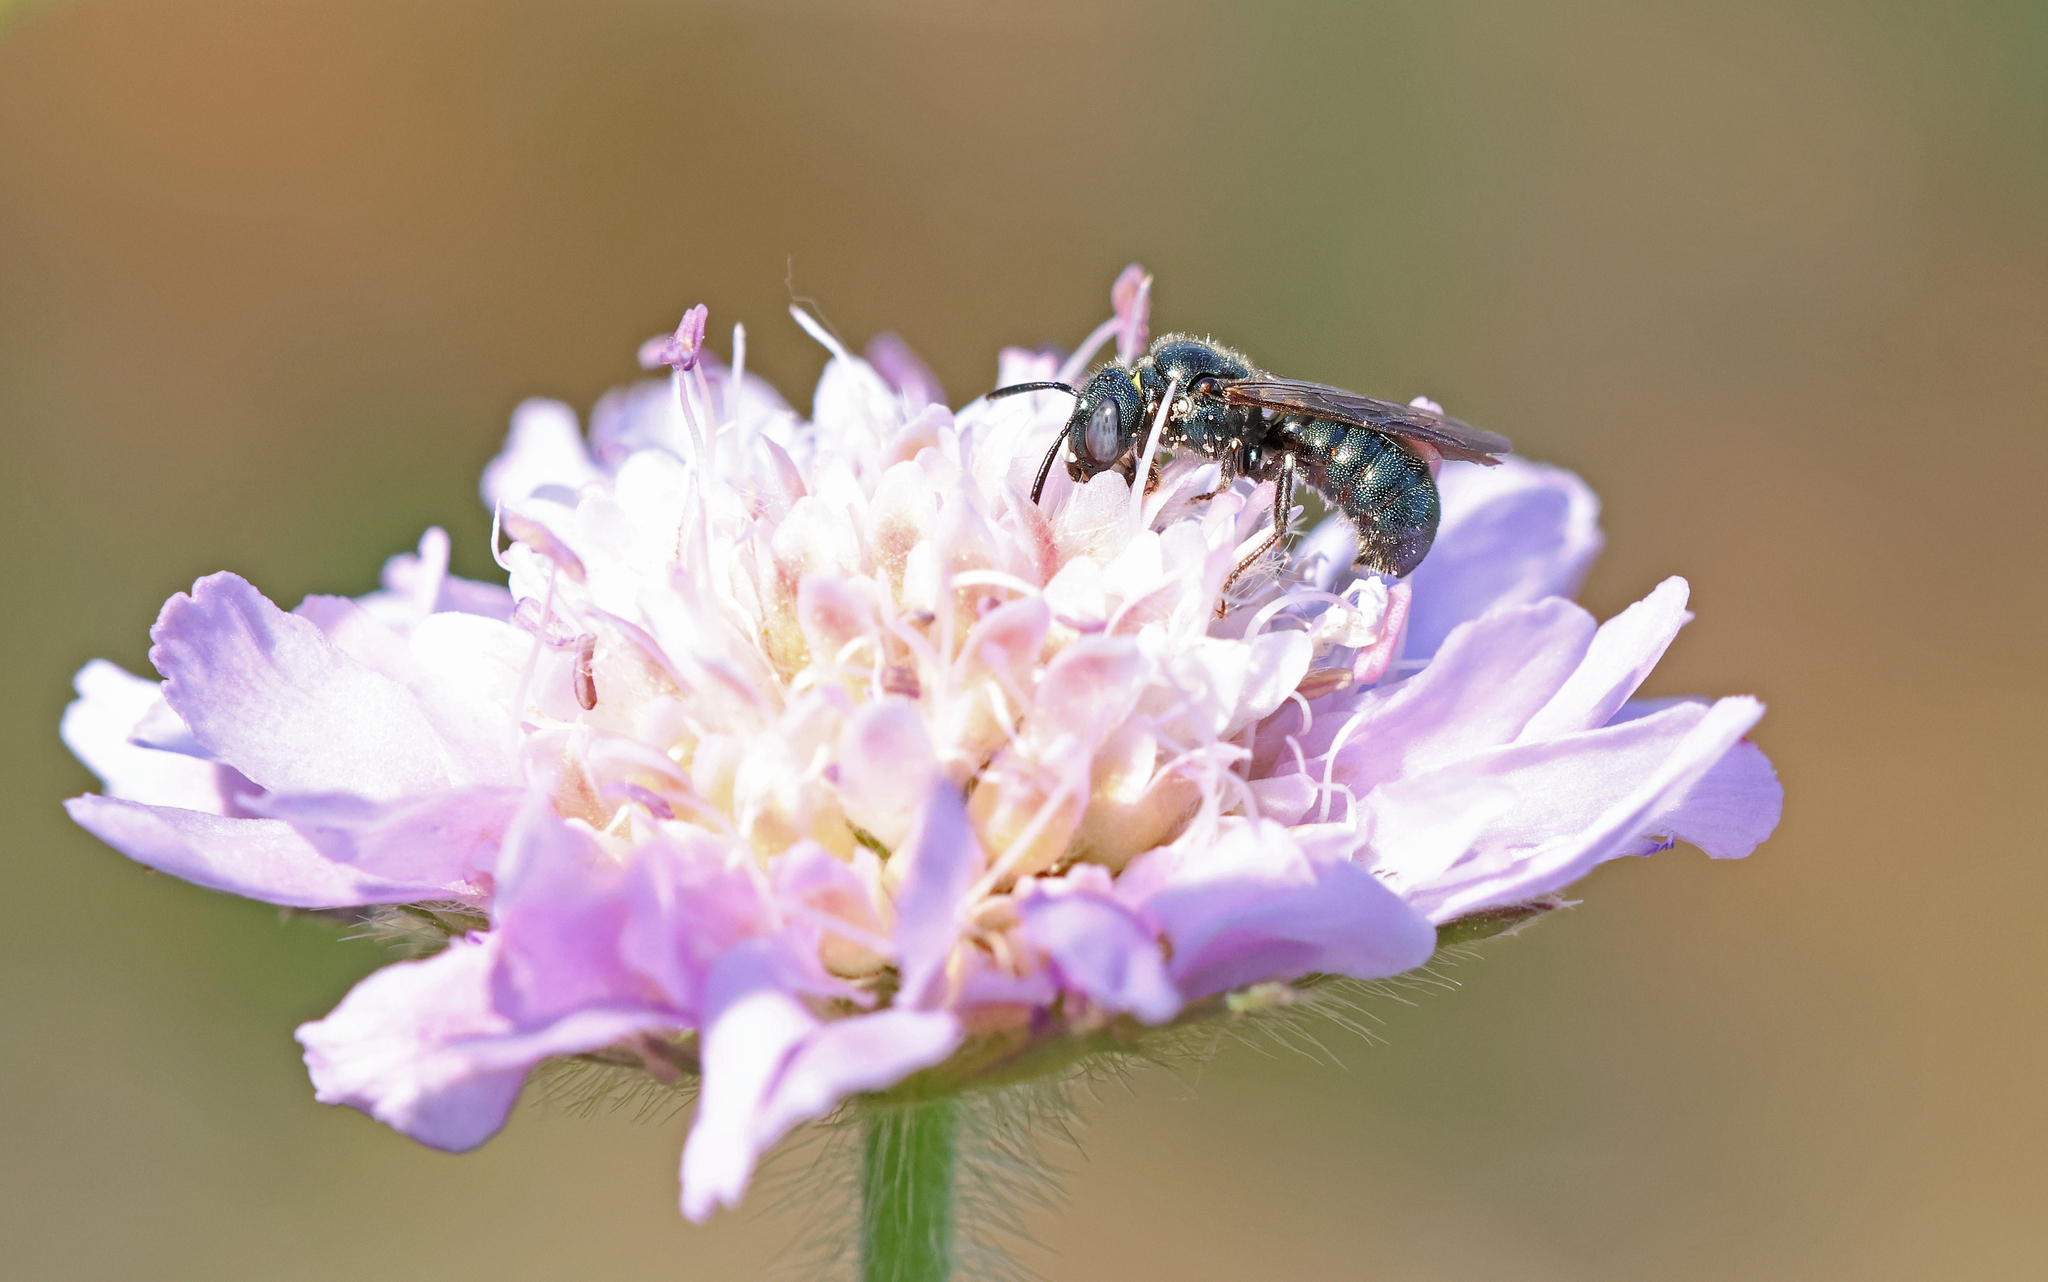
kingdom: Animalia
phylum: Arthropoda
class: Insecta
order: Hymenoptera
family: Apidae
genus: Ceratina
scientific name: Ceratina chalybea
